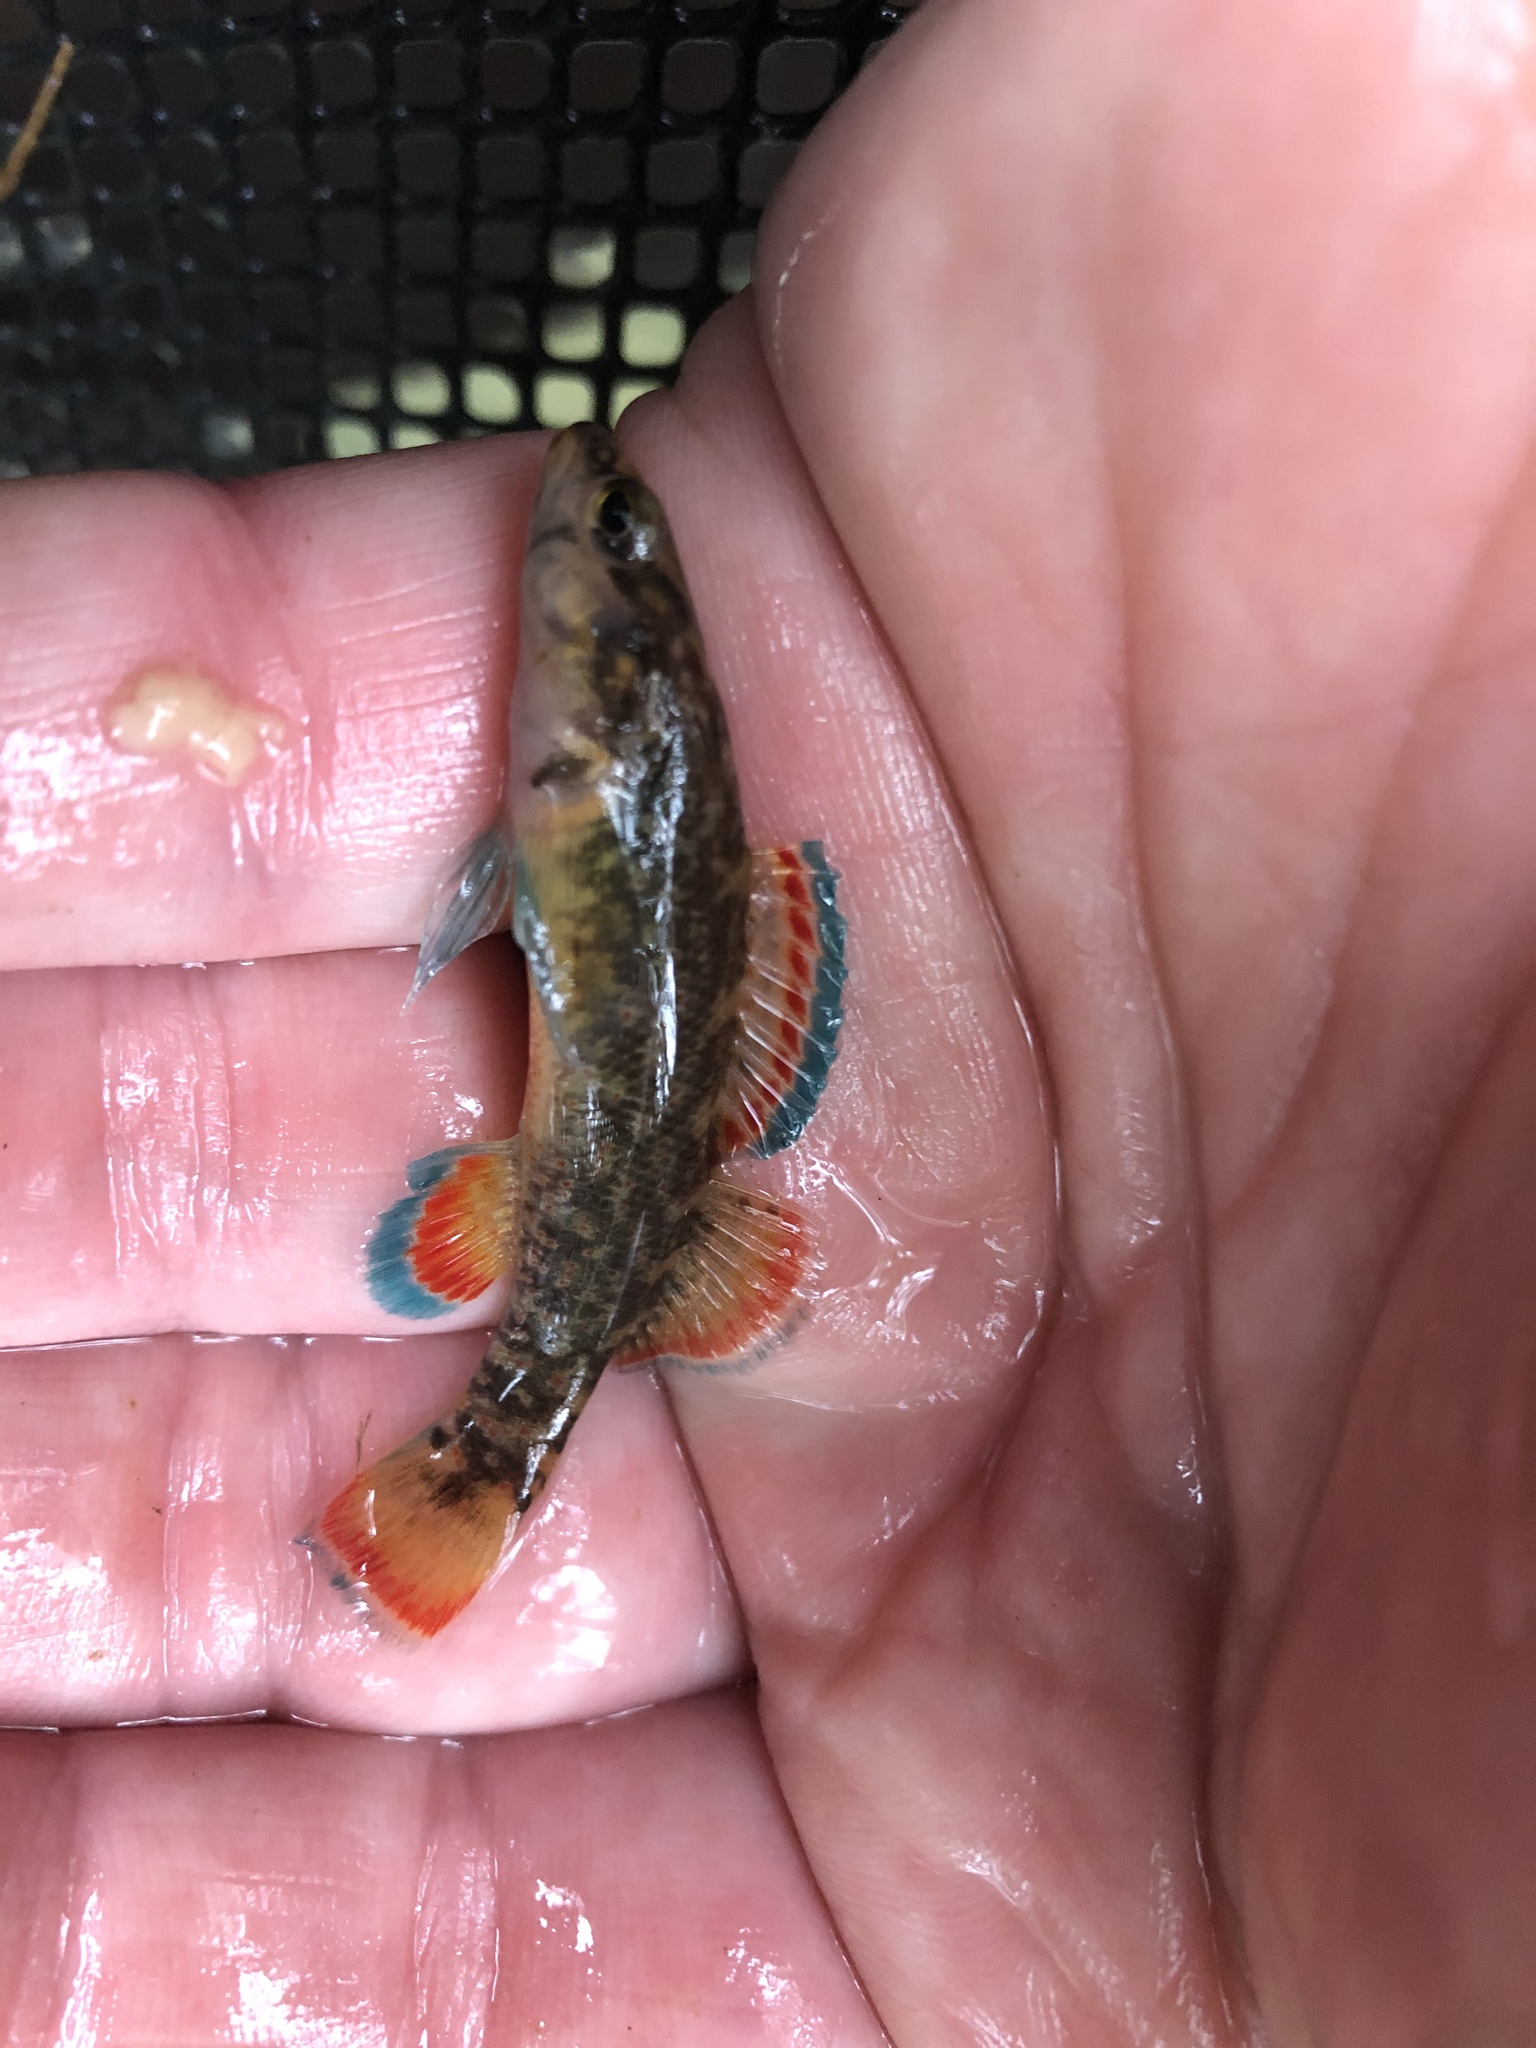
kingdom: Animalia
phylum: Chordata
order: Perciformes
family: Percidae
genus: Etheostoma
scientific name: Etheostoma artesiae
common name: Redspot darter
